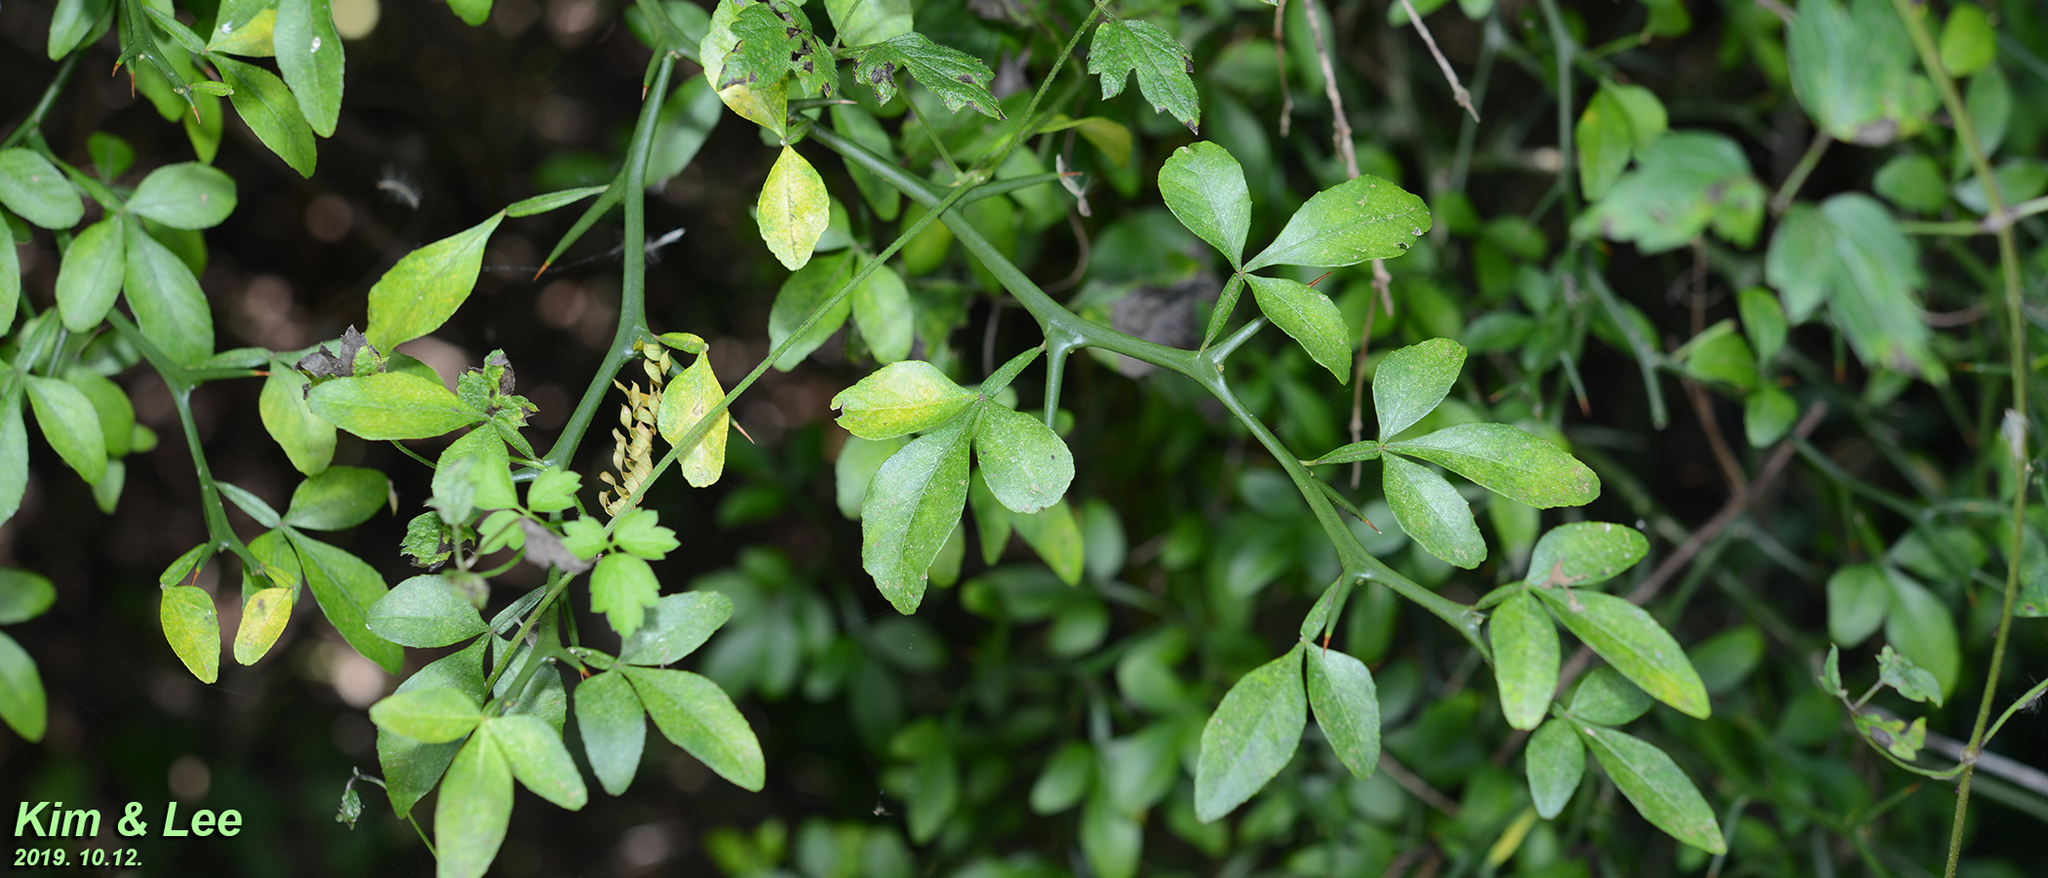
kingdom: Plantae
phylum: Tracheophyta
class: Magnoliopsida
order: Sapindales
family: Rutaceae
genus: Citrus
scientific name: Citrus trifoliata
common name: Japanese bitter-orange
